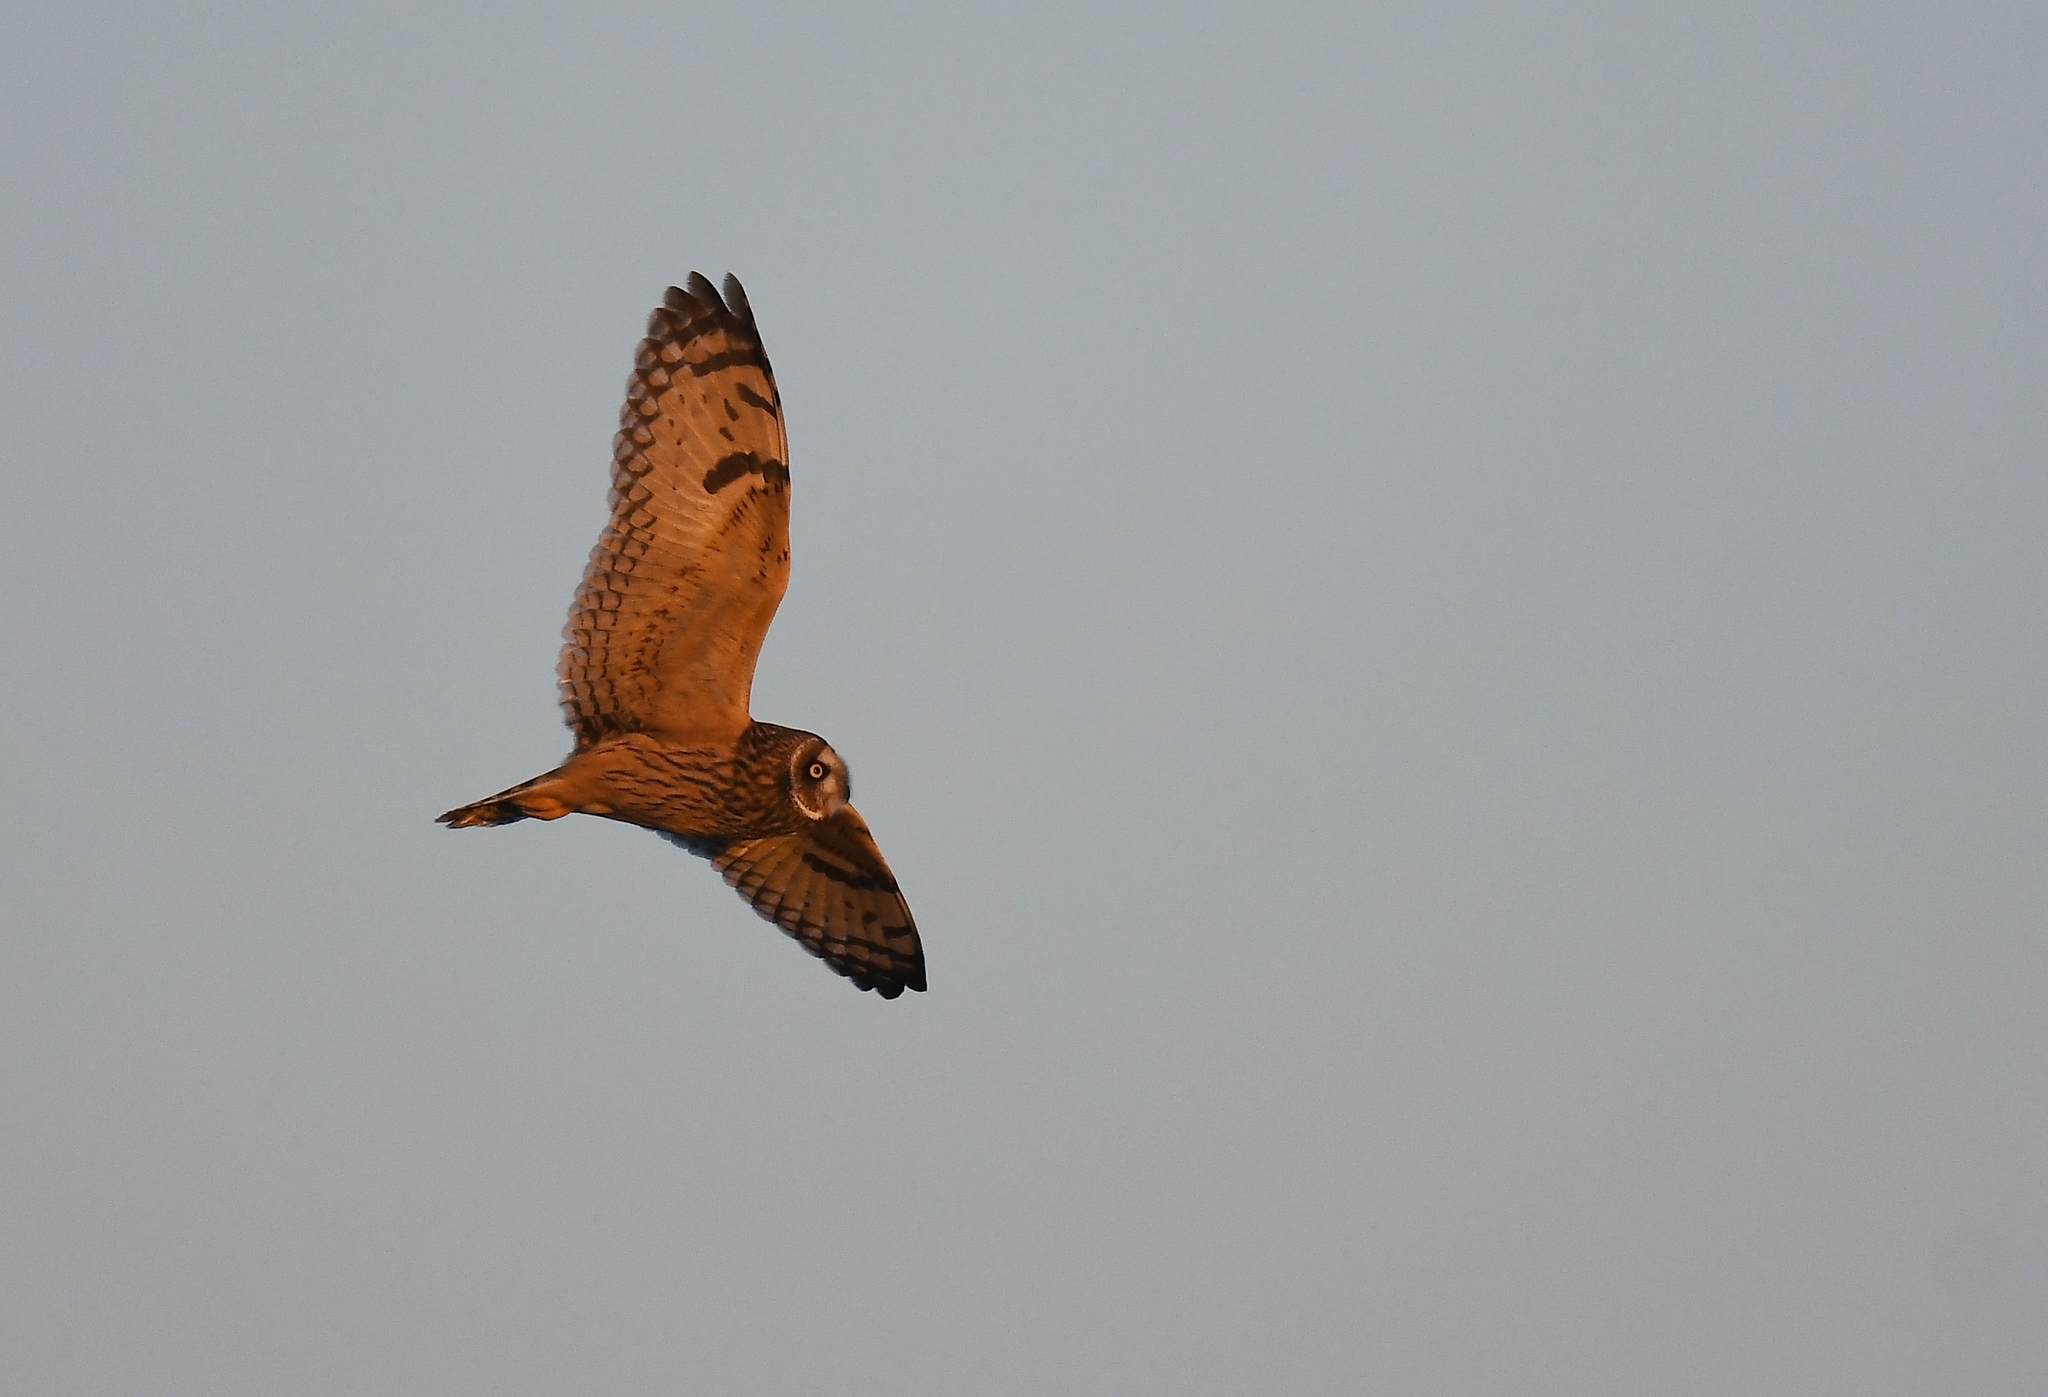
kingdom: Animalia
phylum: Chordata
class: Aves
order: Strigiformes
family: Strigidae
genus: Asio
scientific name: Asio flammeus
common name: Short-eared owl
